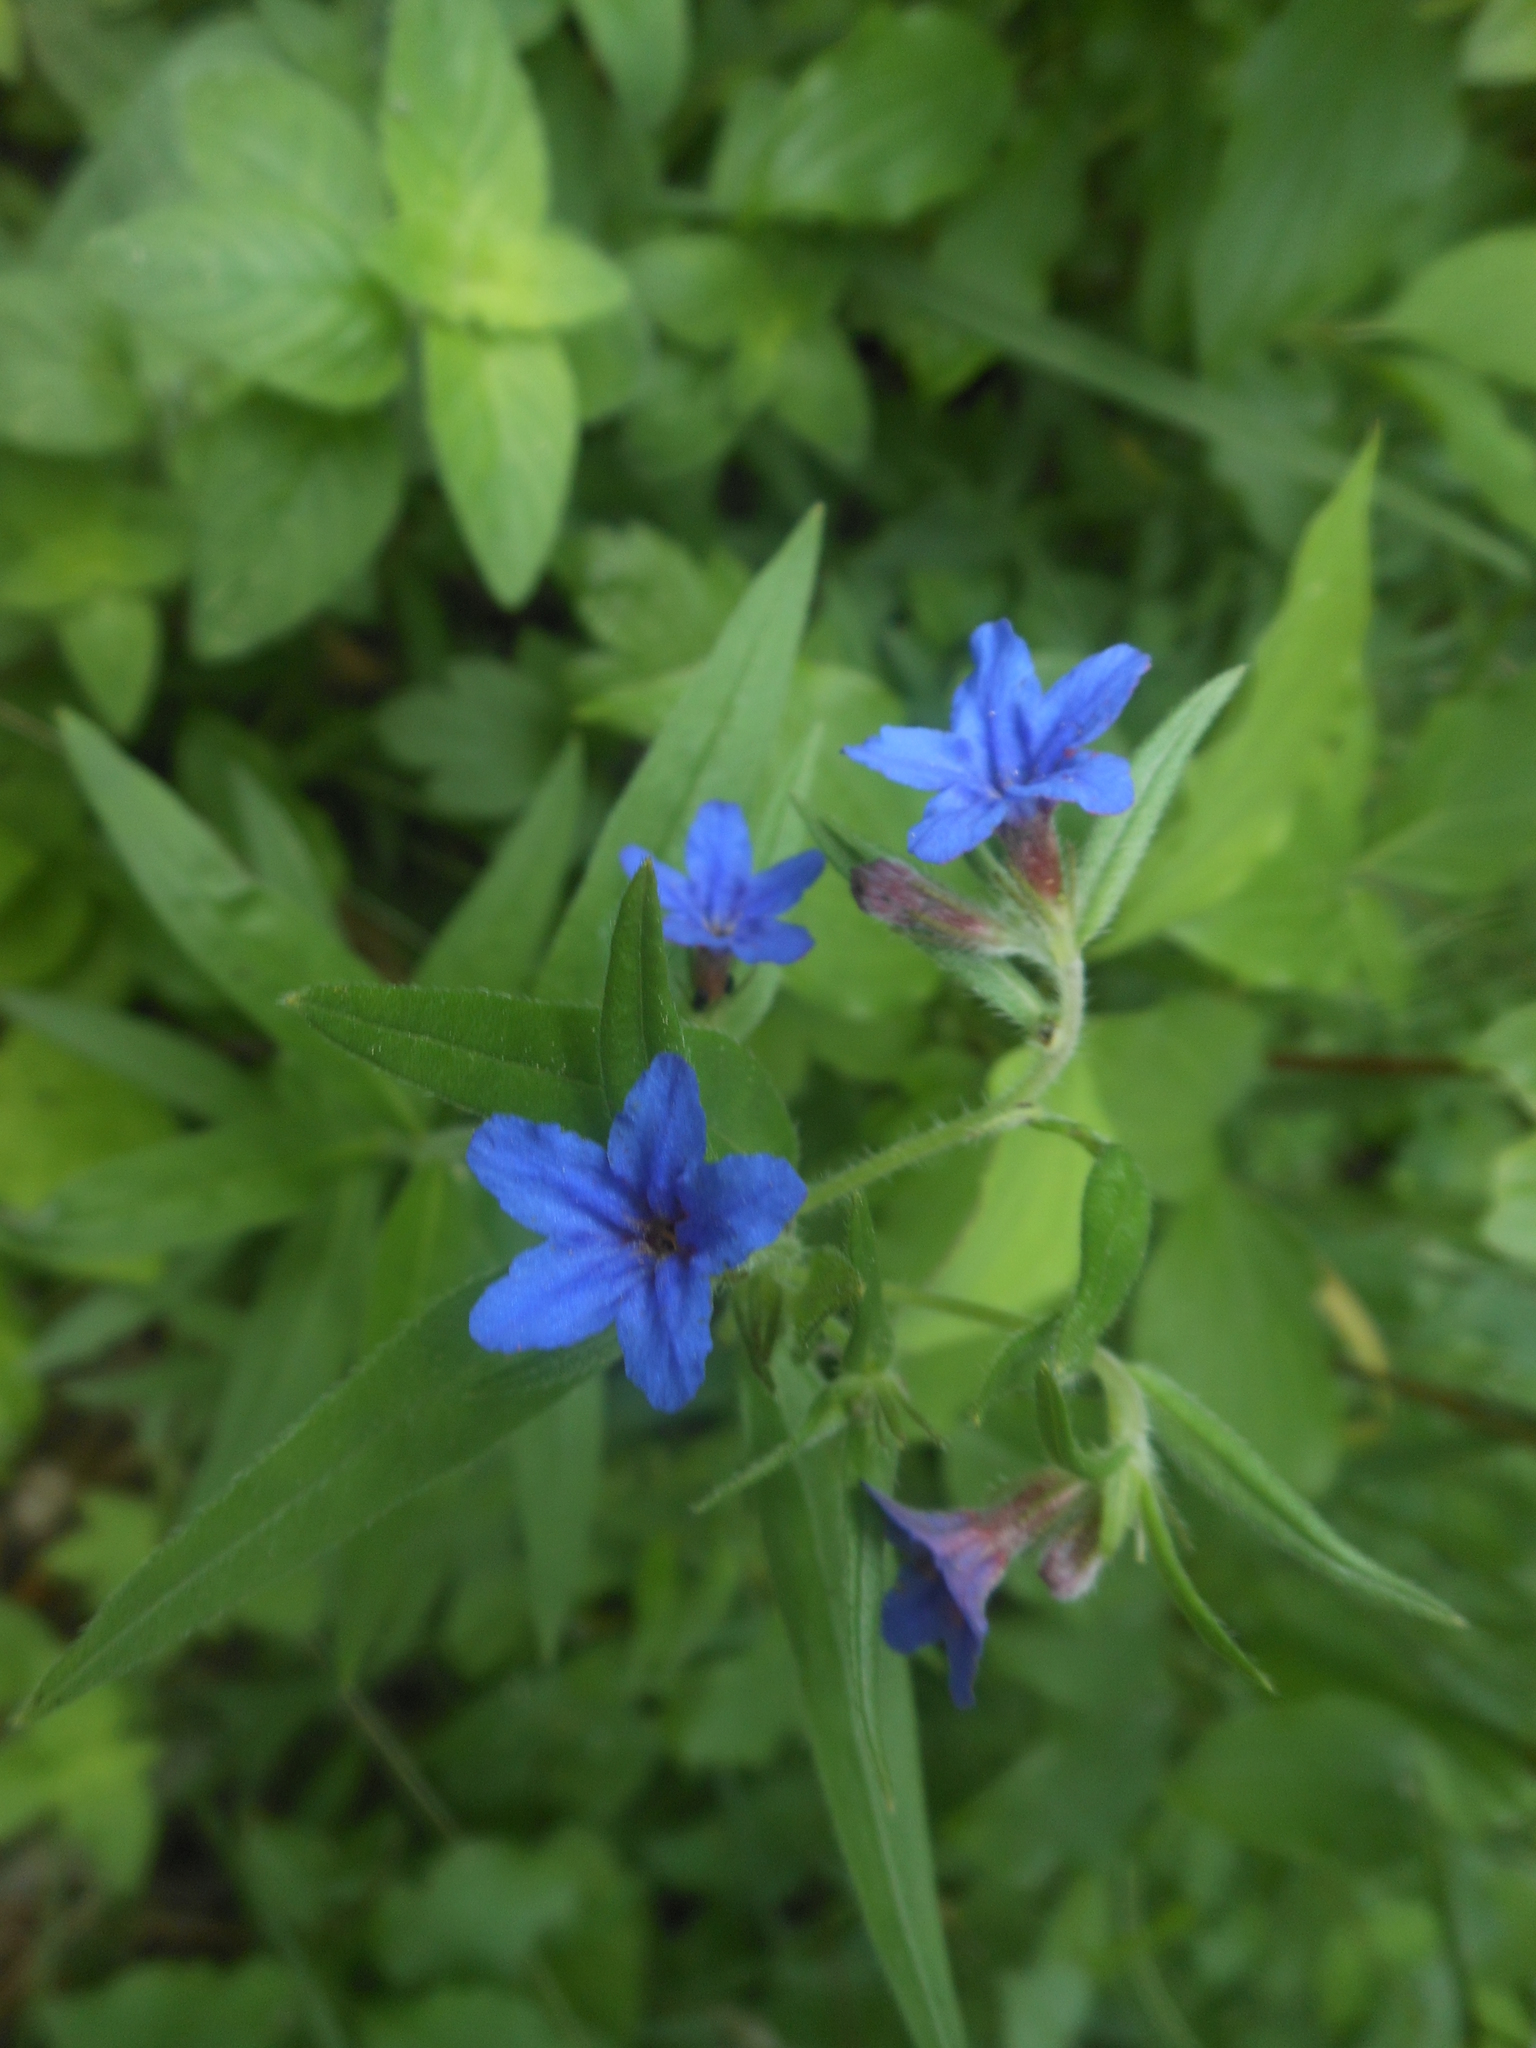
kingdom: Plantae
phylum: Tracheophyta
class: Magnoliopsida
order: Boraginales
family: Boraginaceae
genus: Aegonychon
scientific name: Aegonychon purpurocaeruleum
